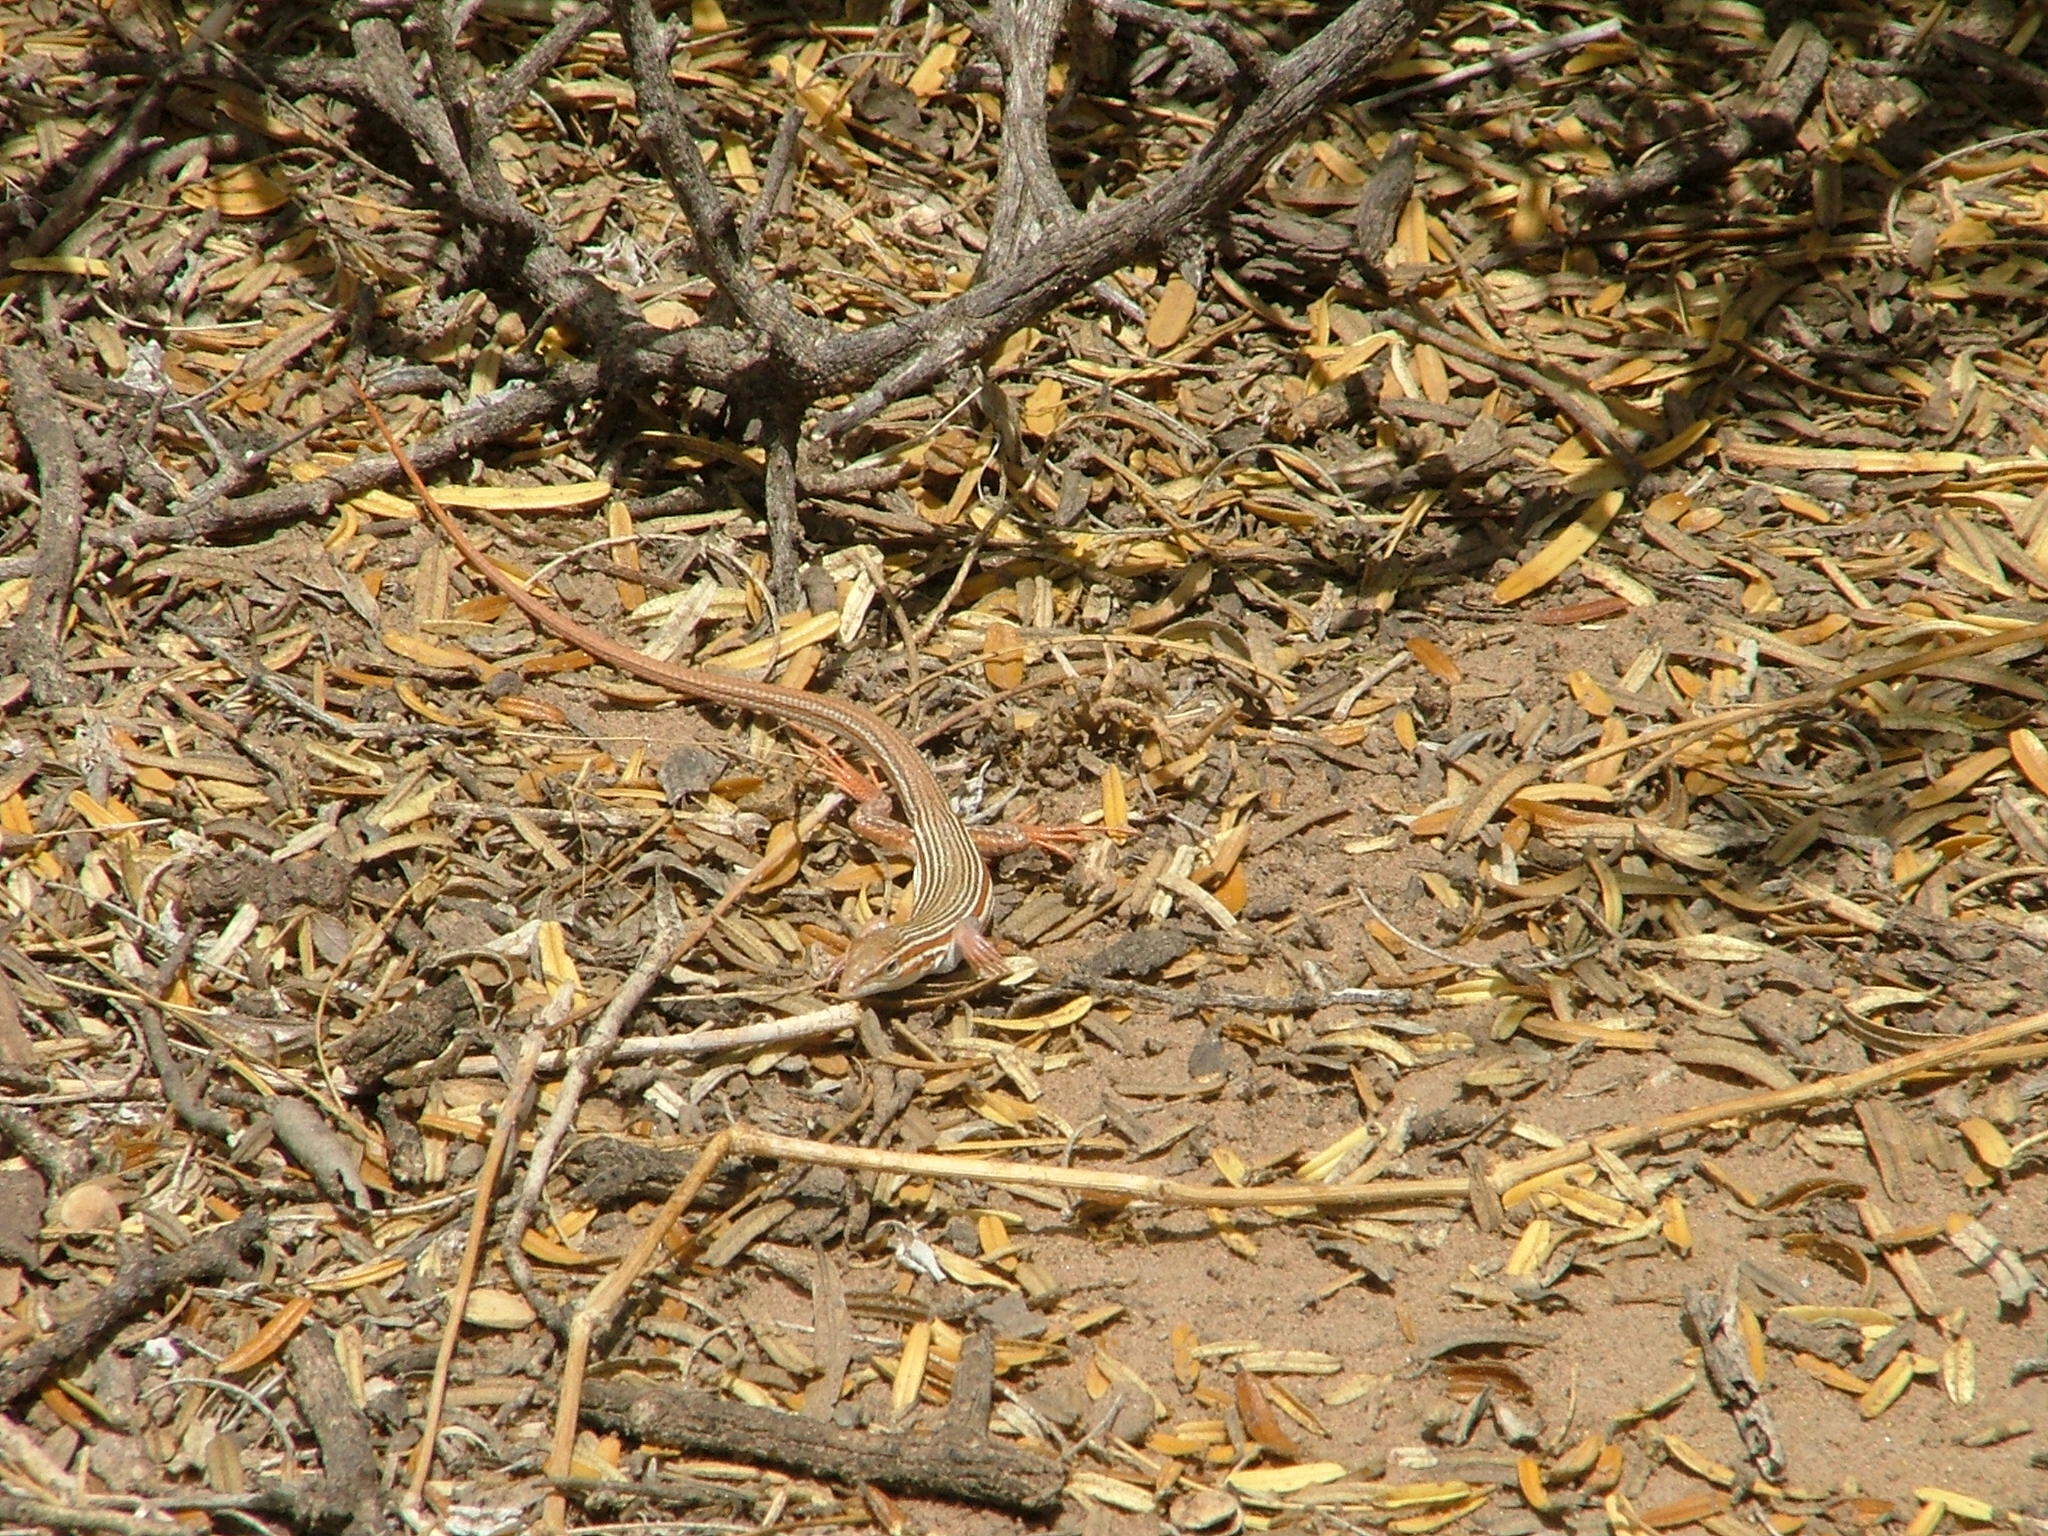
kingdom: Animalia
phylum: Chordata
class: Squamata
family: Teiidae
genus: Aurivela
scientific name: Aurivela longicauda
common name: Longtail whiptail
